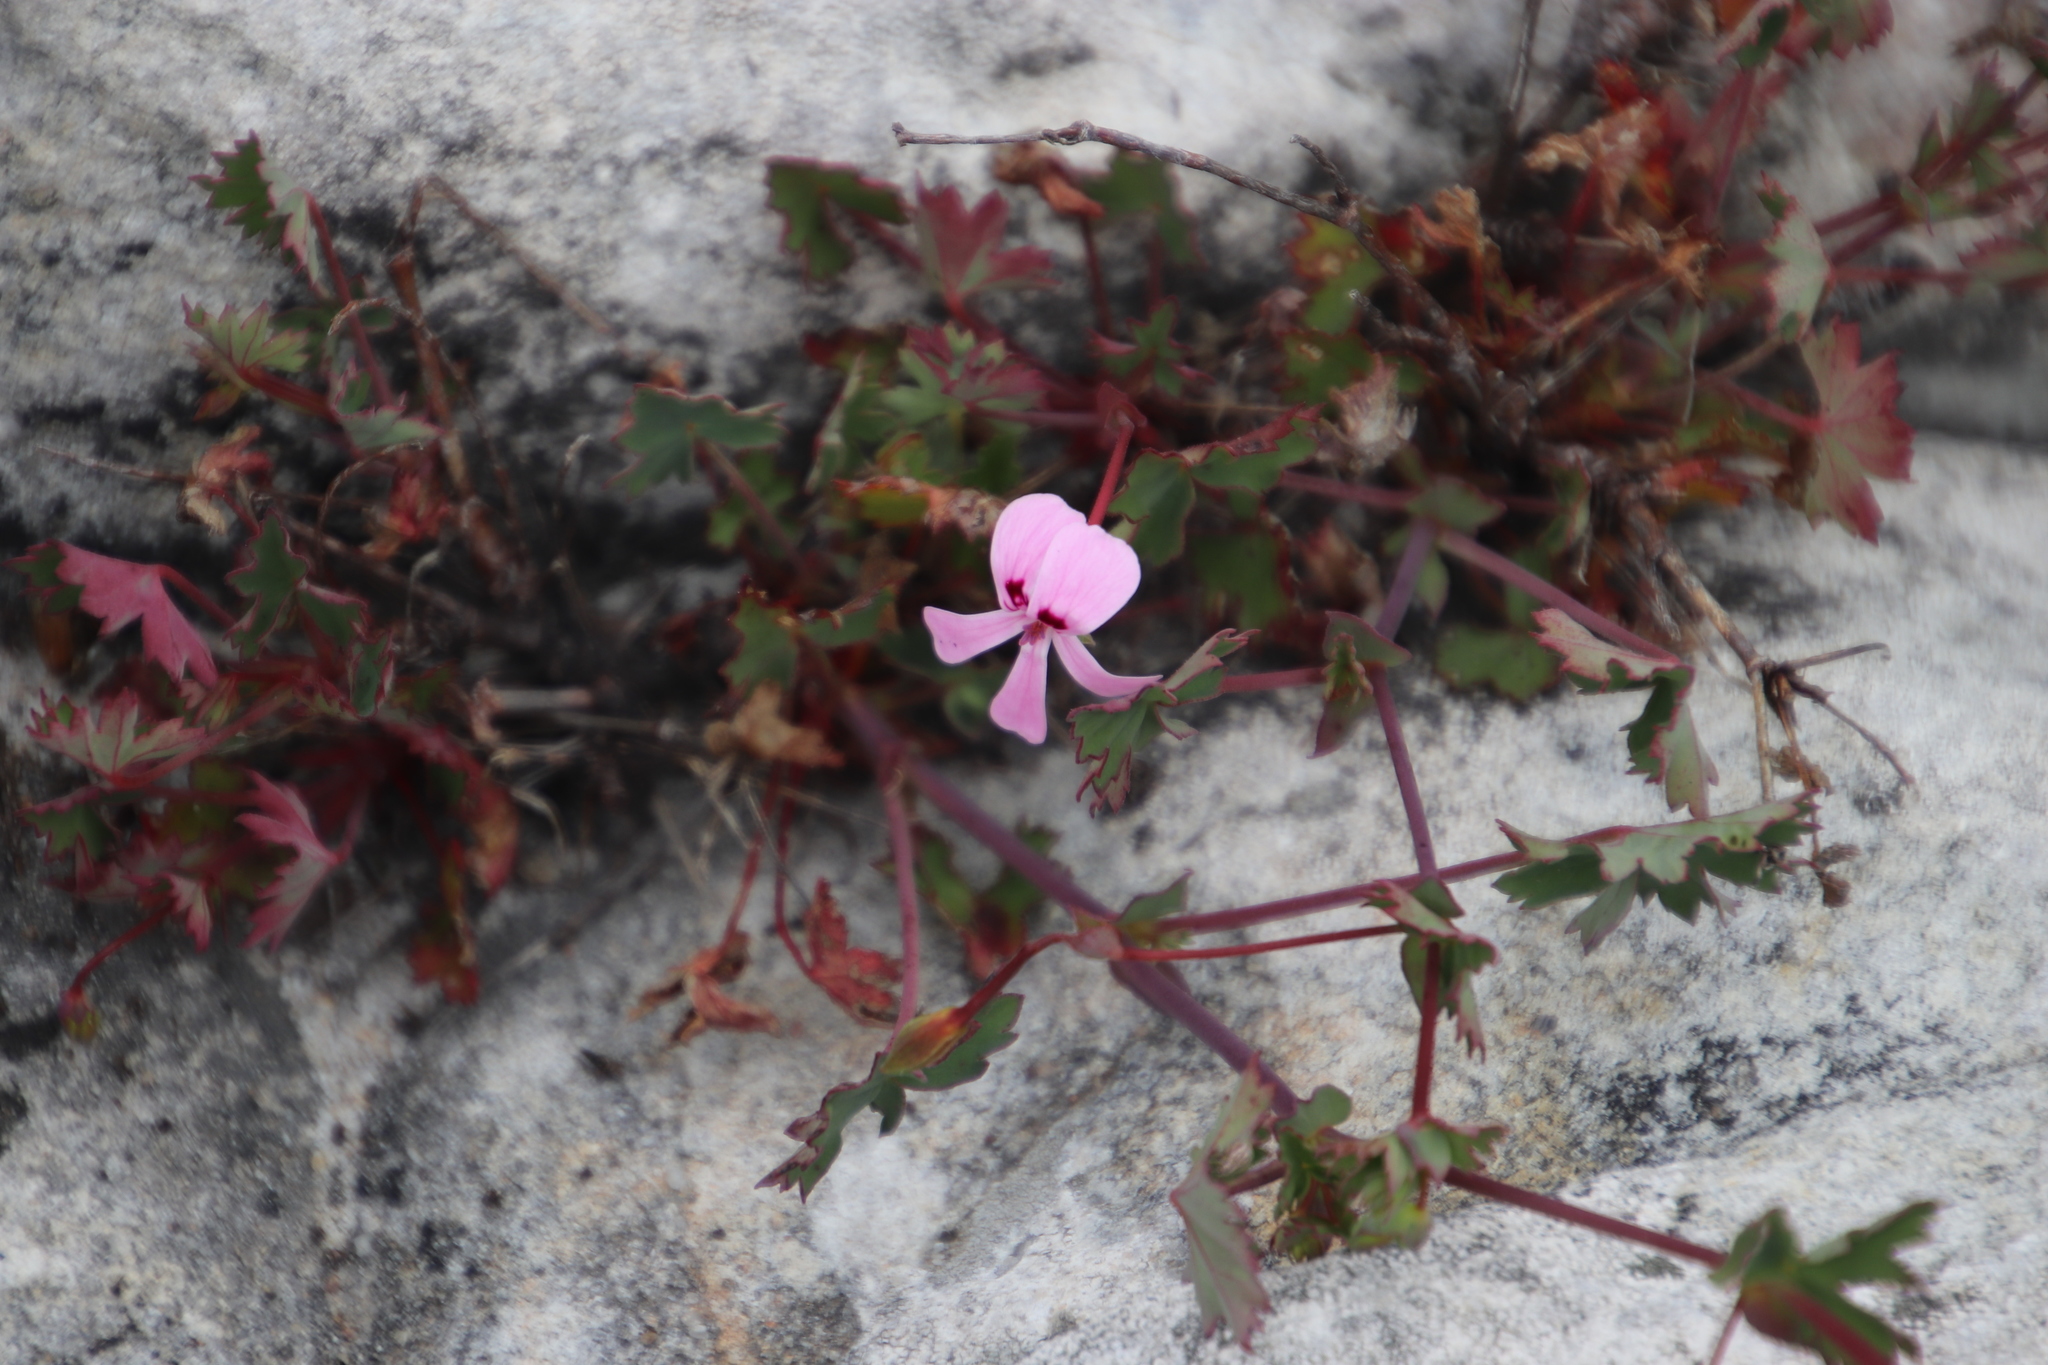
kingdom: Plantae
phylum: Tracheophyta
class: Magnoliopsida
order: Geraniales
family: Geraniaceae
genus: Pelargonium
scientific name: Pelargonium patulum
